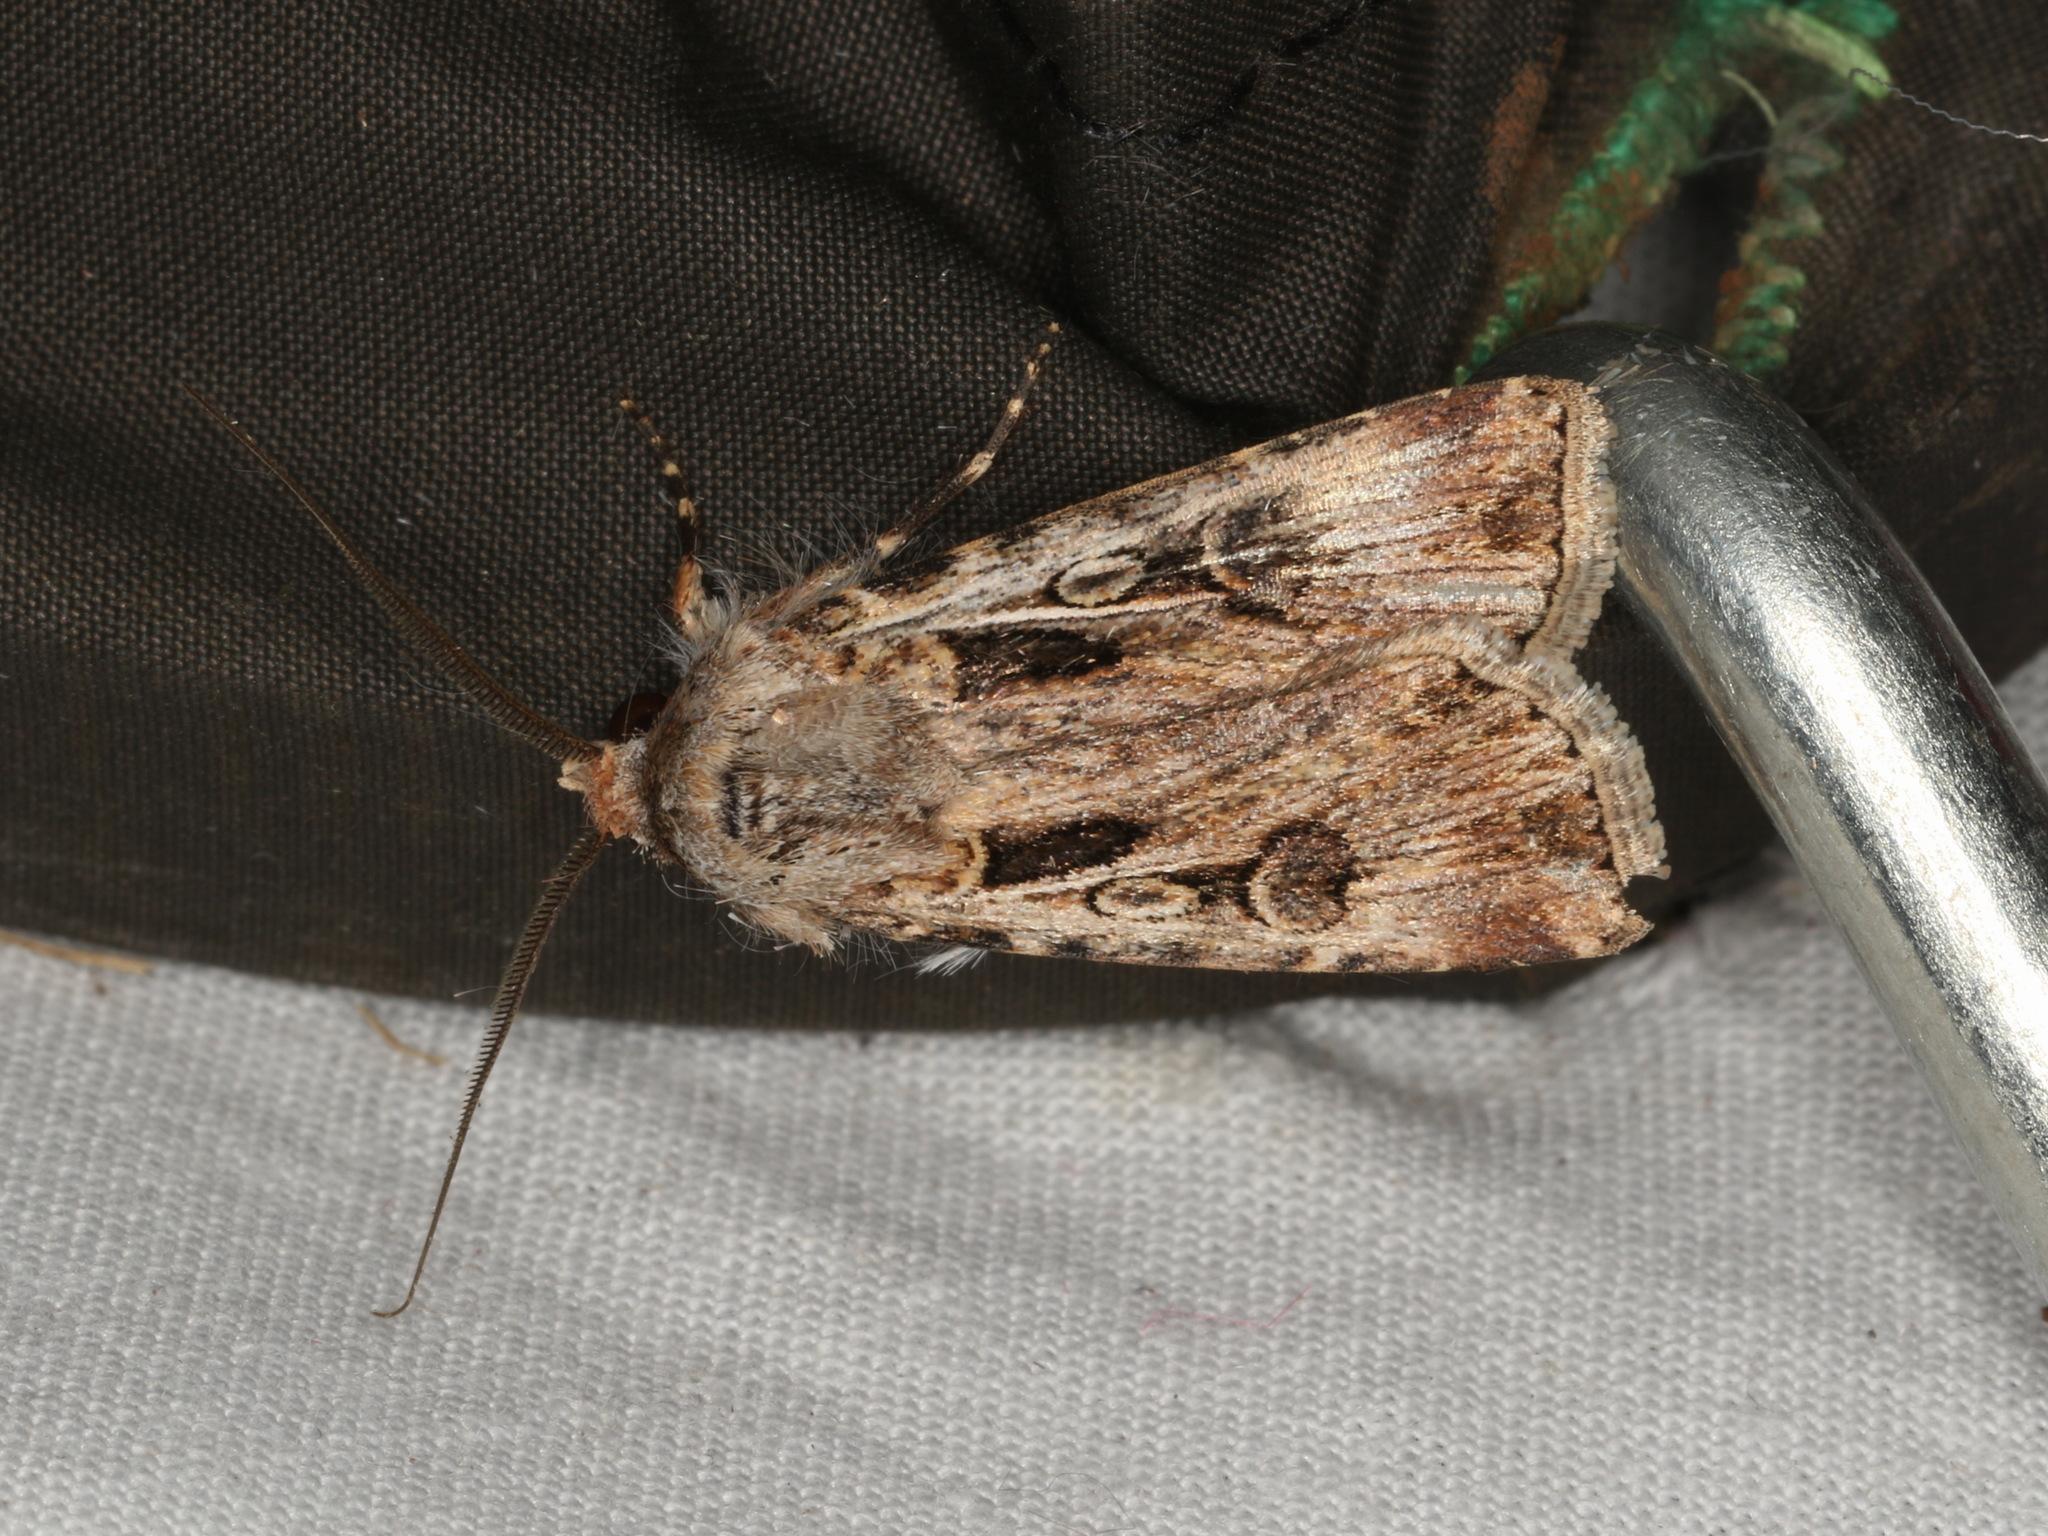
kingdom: Animalia
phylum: Arthropoda
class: Insecta
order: Lepidoptera
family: Noctuidae
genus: Agrotis
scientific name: Agrotis munda
